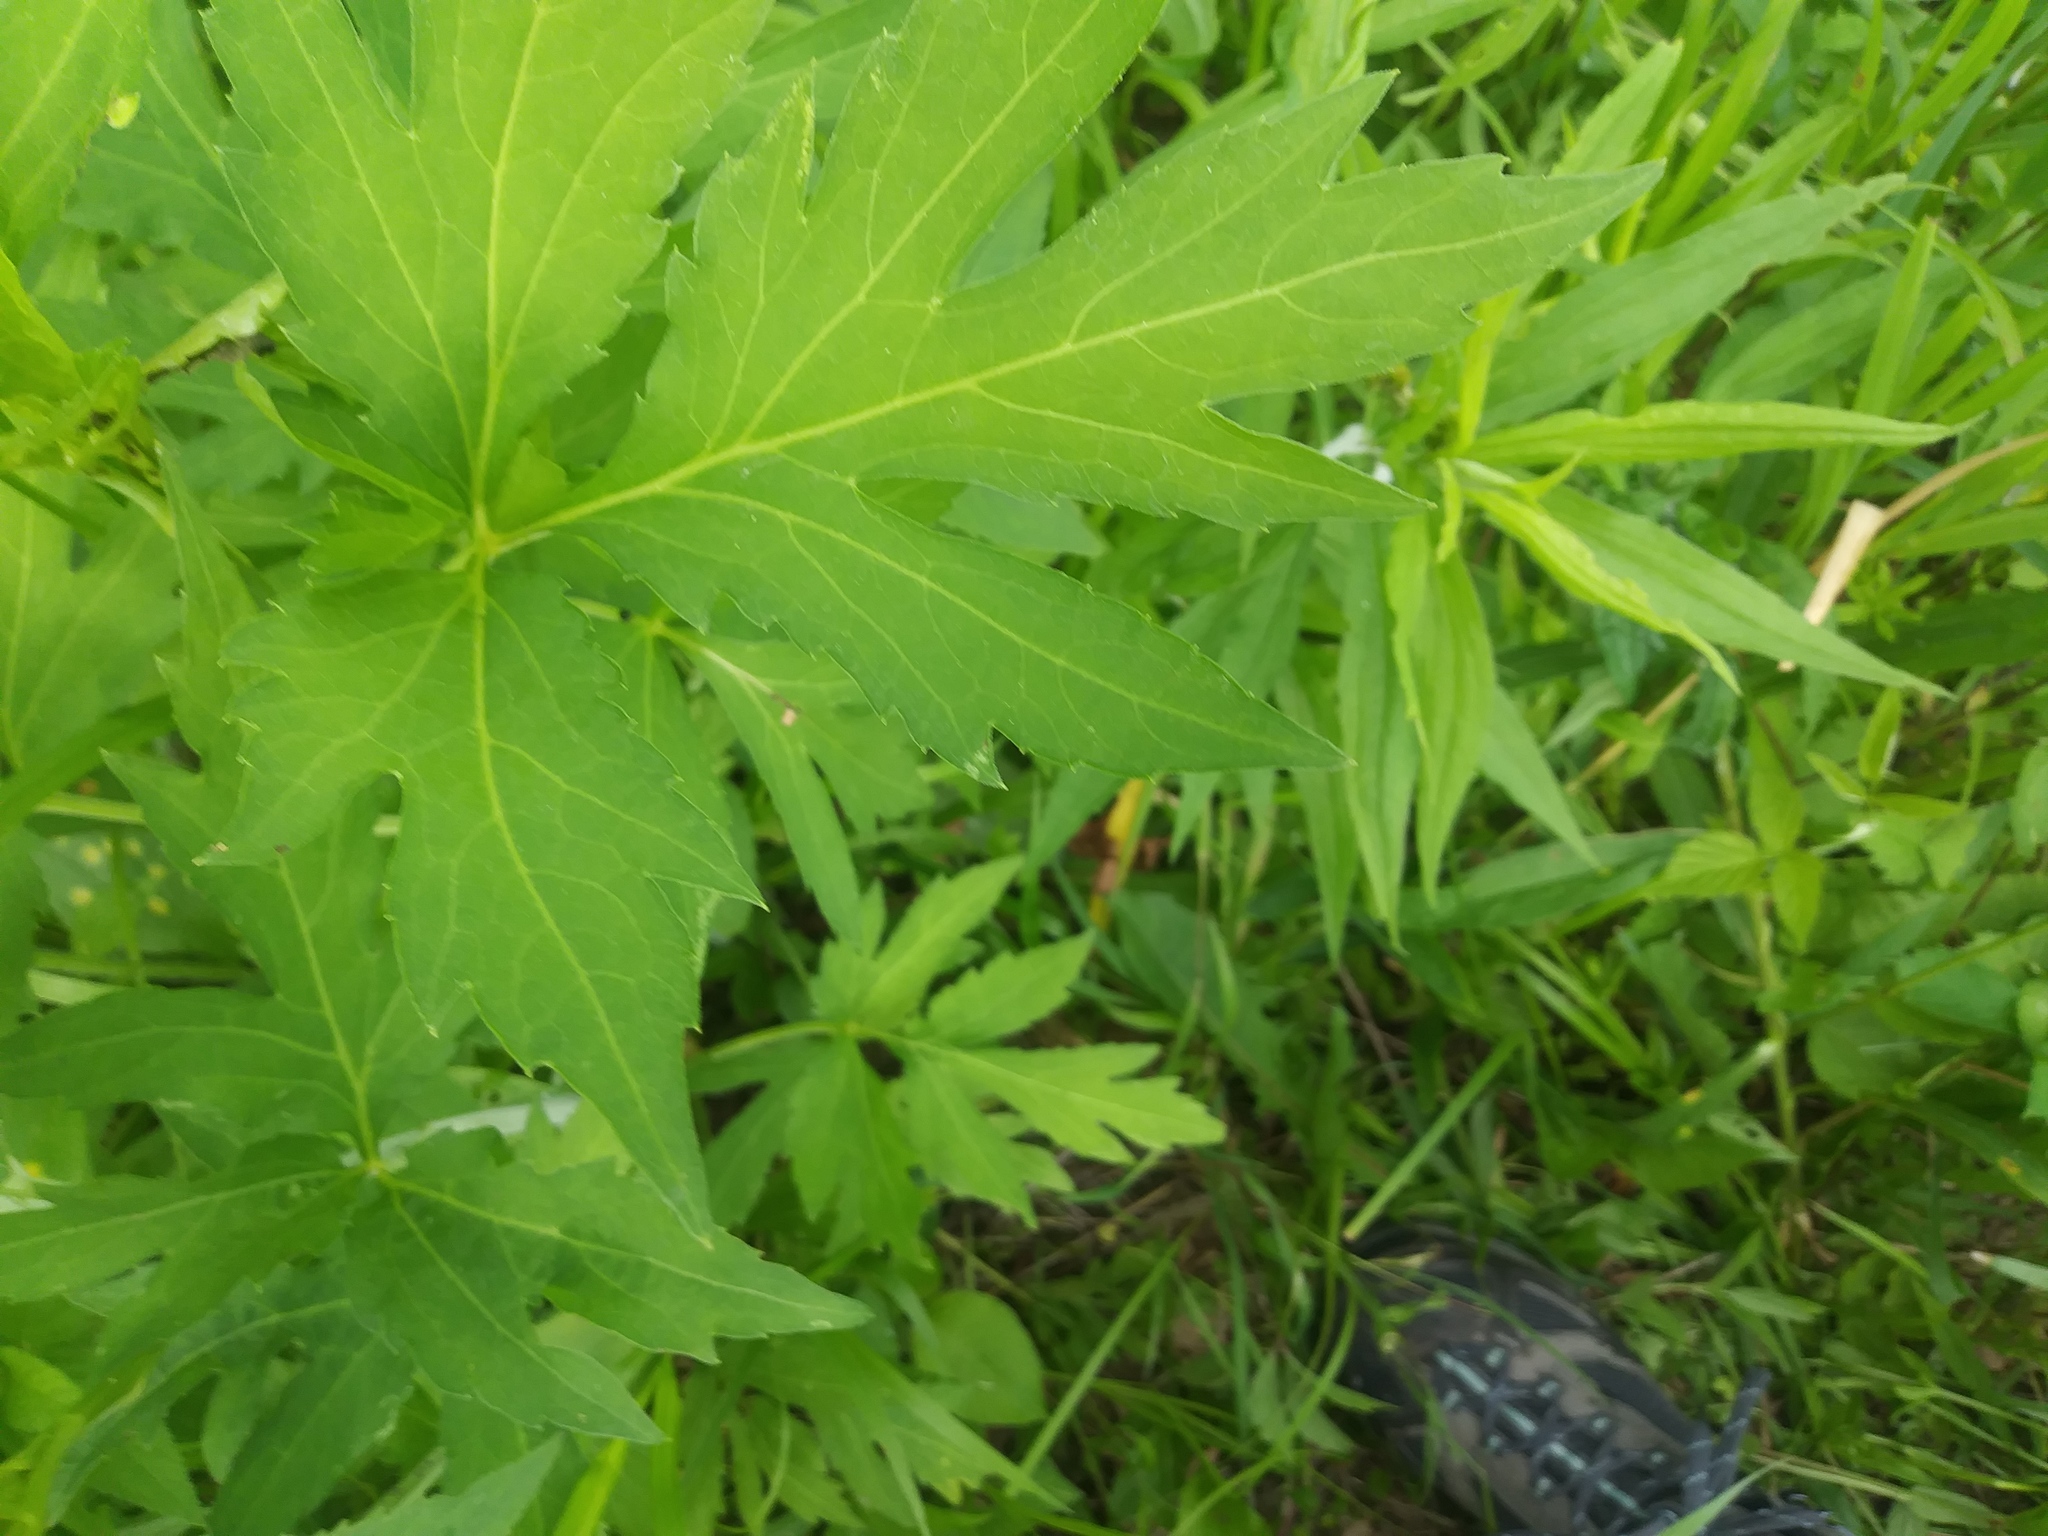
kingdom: Plantae
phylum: Tracheophyta
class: Magnoliopsida
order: Asterales
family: Asteraceae
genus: Rudbeckia
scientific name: Rudbeckia laciniata
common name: Coneflower
